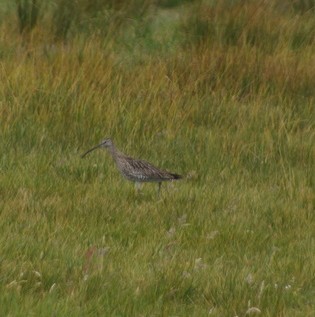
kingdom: Animalia
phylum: Chordata
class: Aves
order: Charadriiformes
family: Scolopacidae
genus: Numenius
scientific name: Numenius arquata
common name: Eurasian curlew
